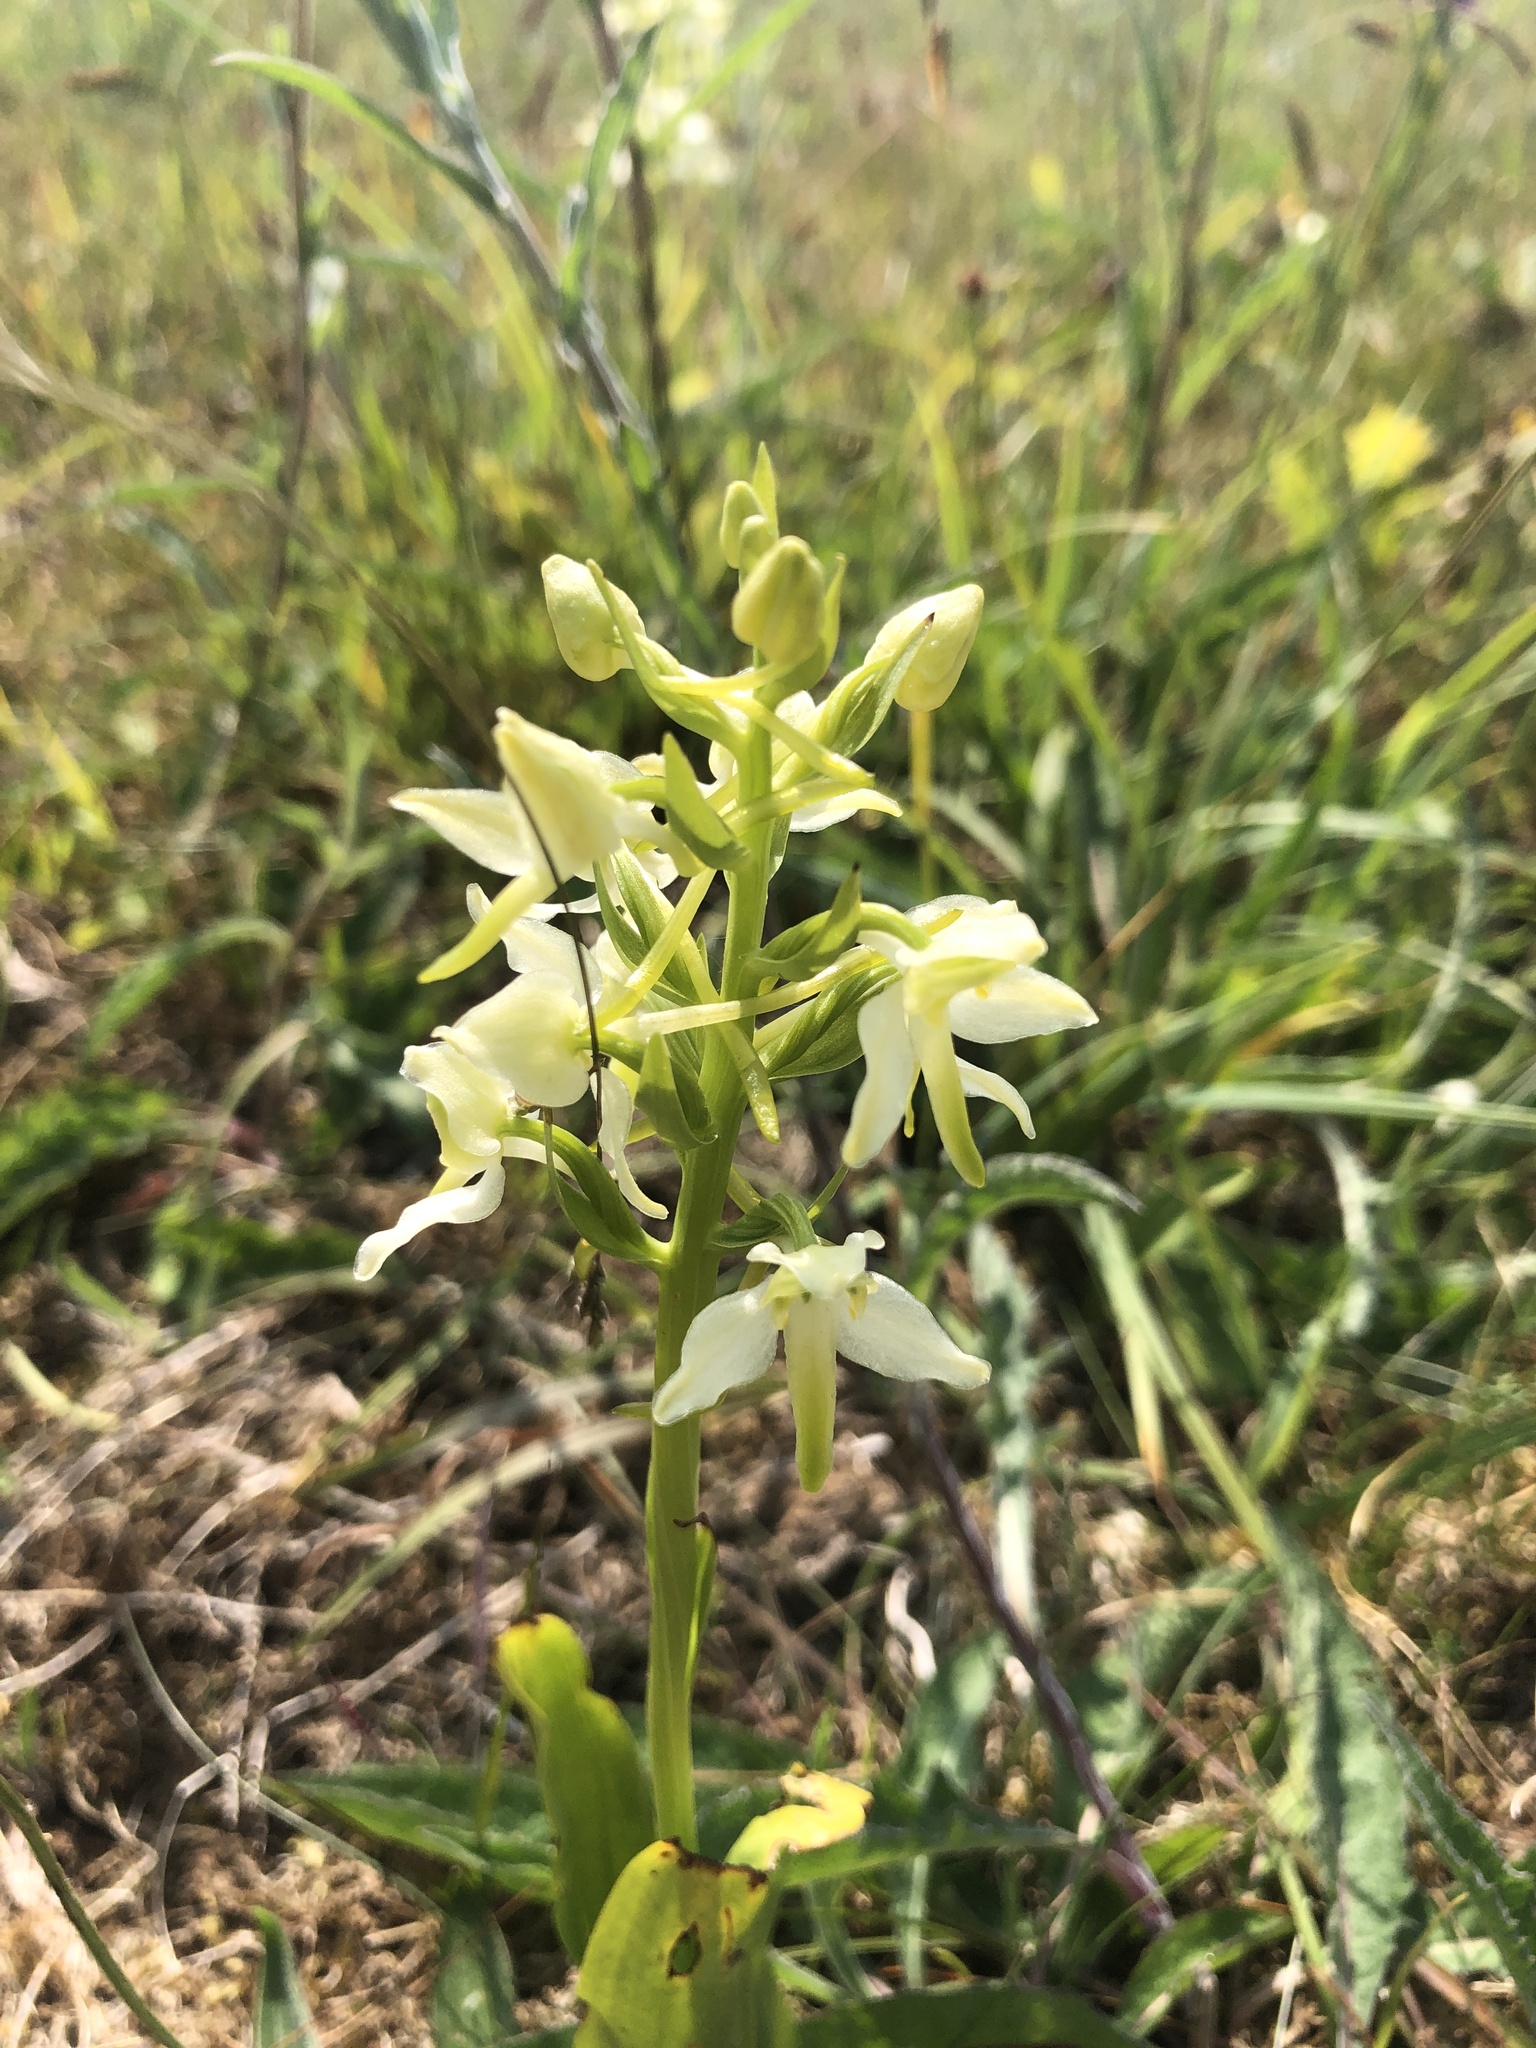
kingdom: Plantae
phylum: Tracheophyta
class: Liliopsida
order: Asparagales
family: Orchidaceae
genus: Platanthera
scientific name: Platanthera chlorantha
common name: Greater butterfly-orchid
